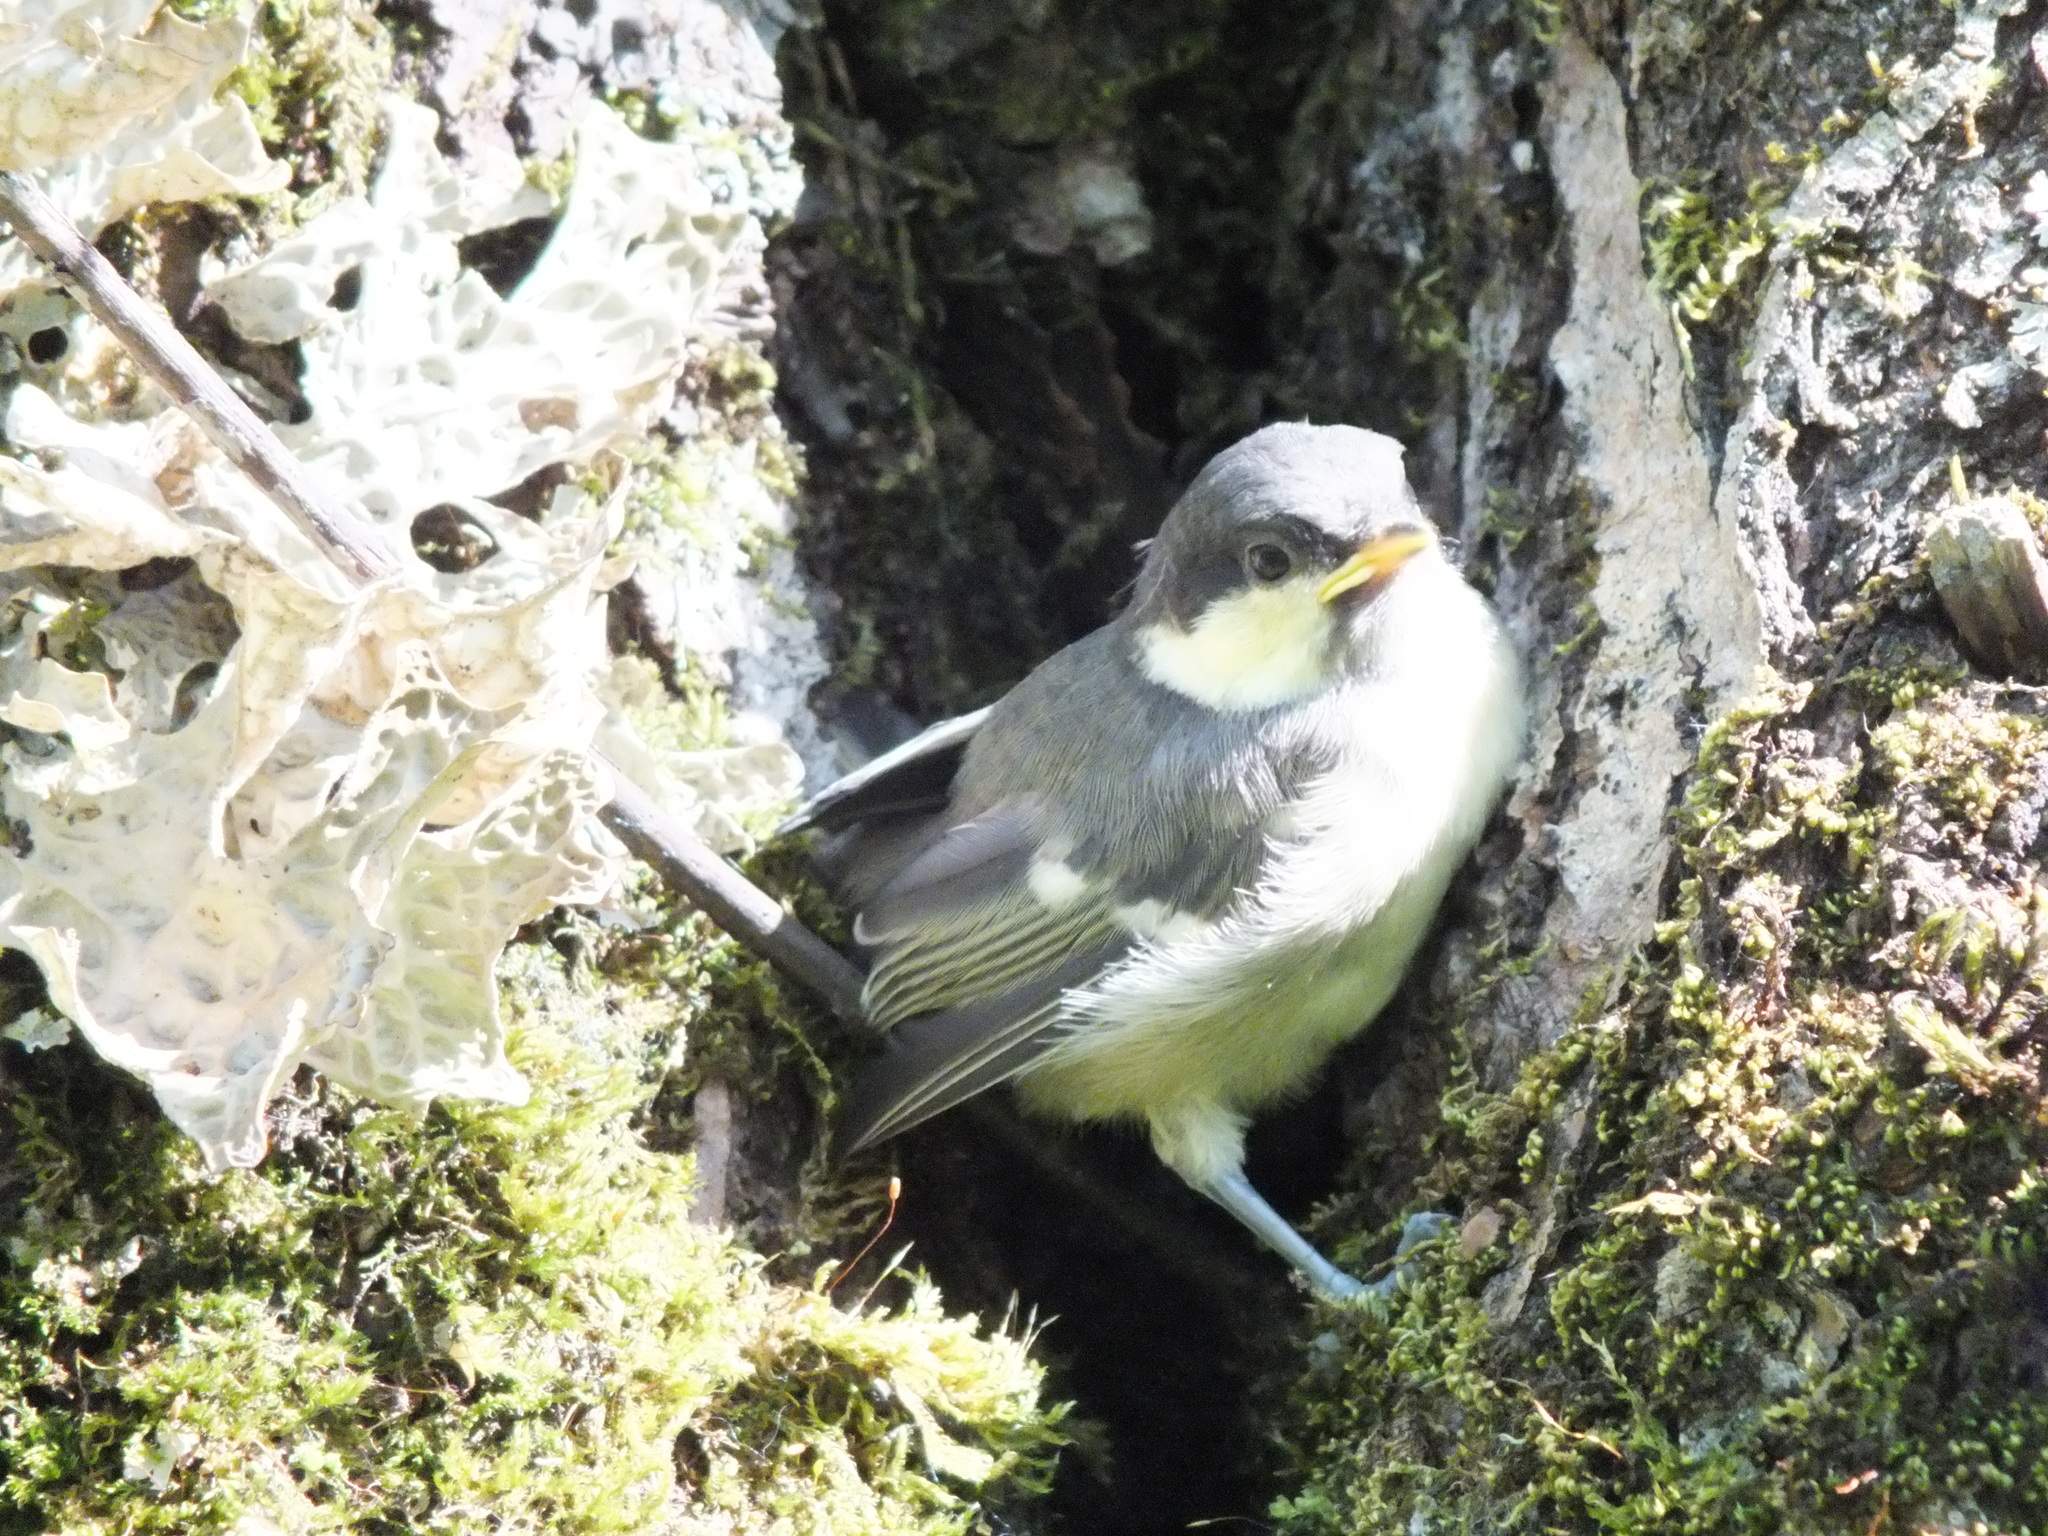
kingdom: Animalia
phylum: Chordata
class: Aves
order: Passeriformes
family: Paridae
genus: Parus
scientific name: Parus major
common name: Great tit
